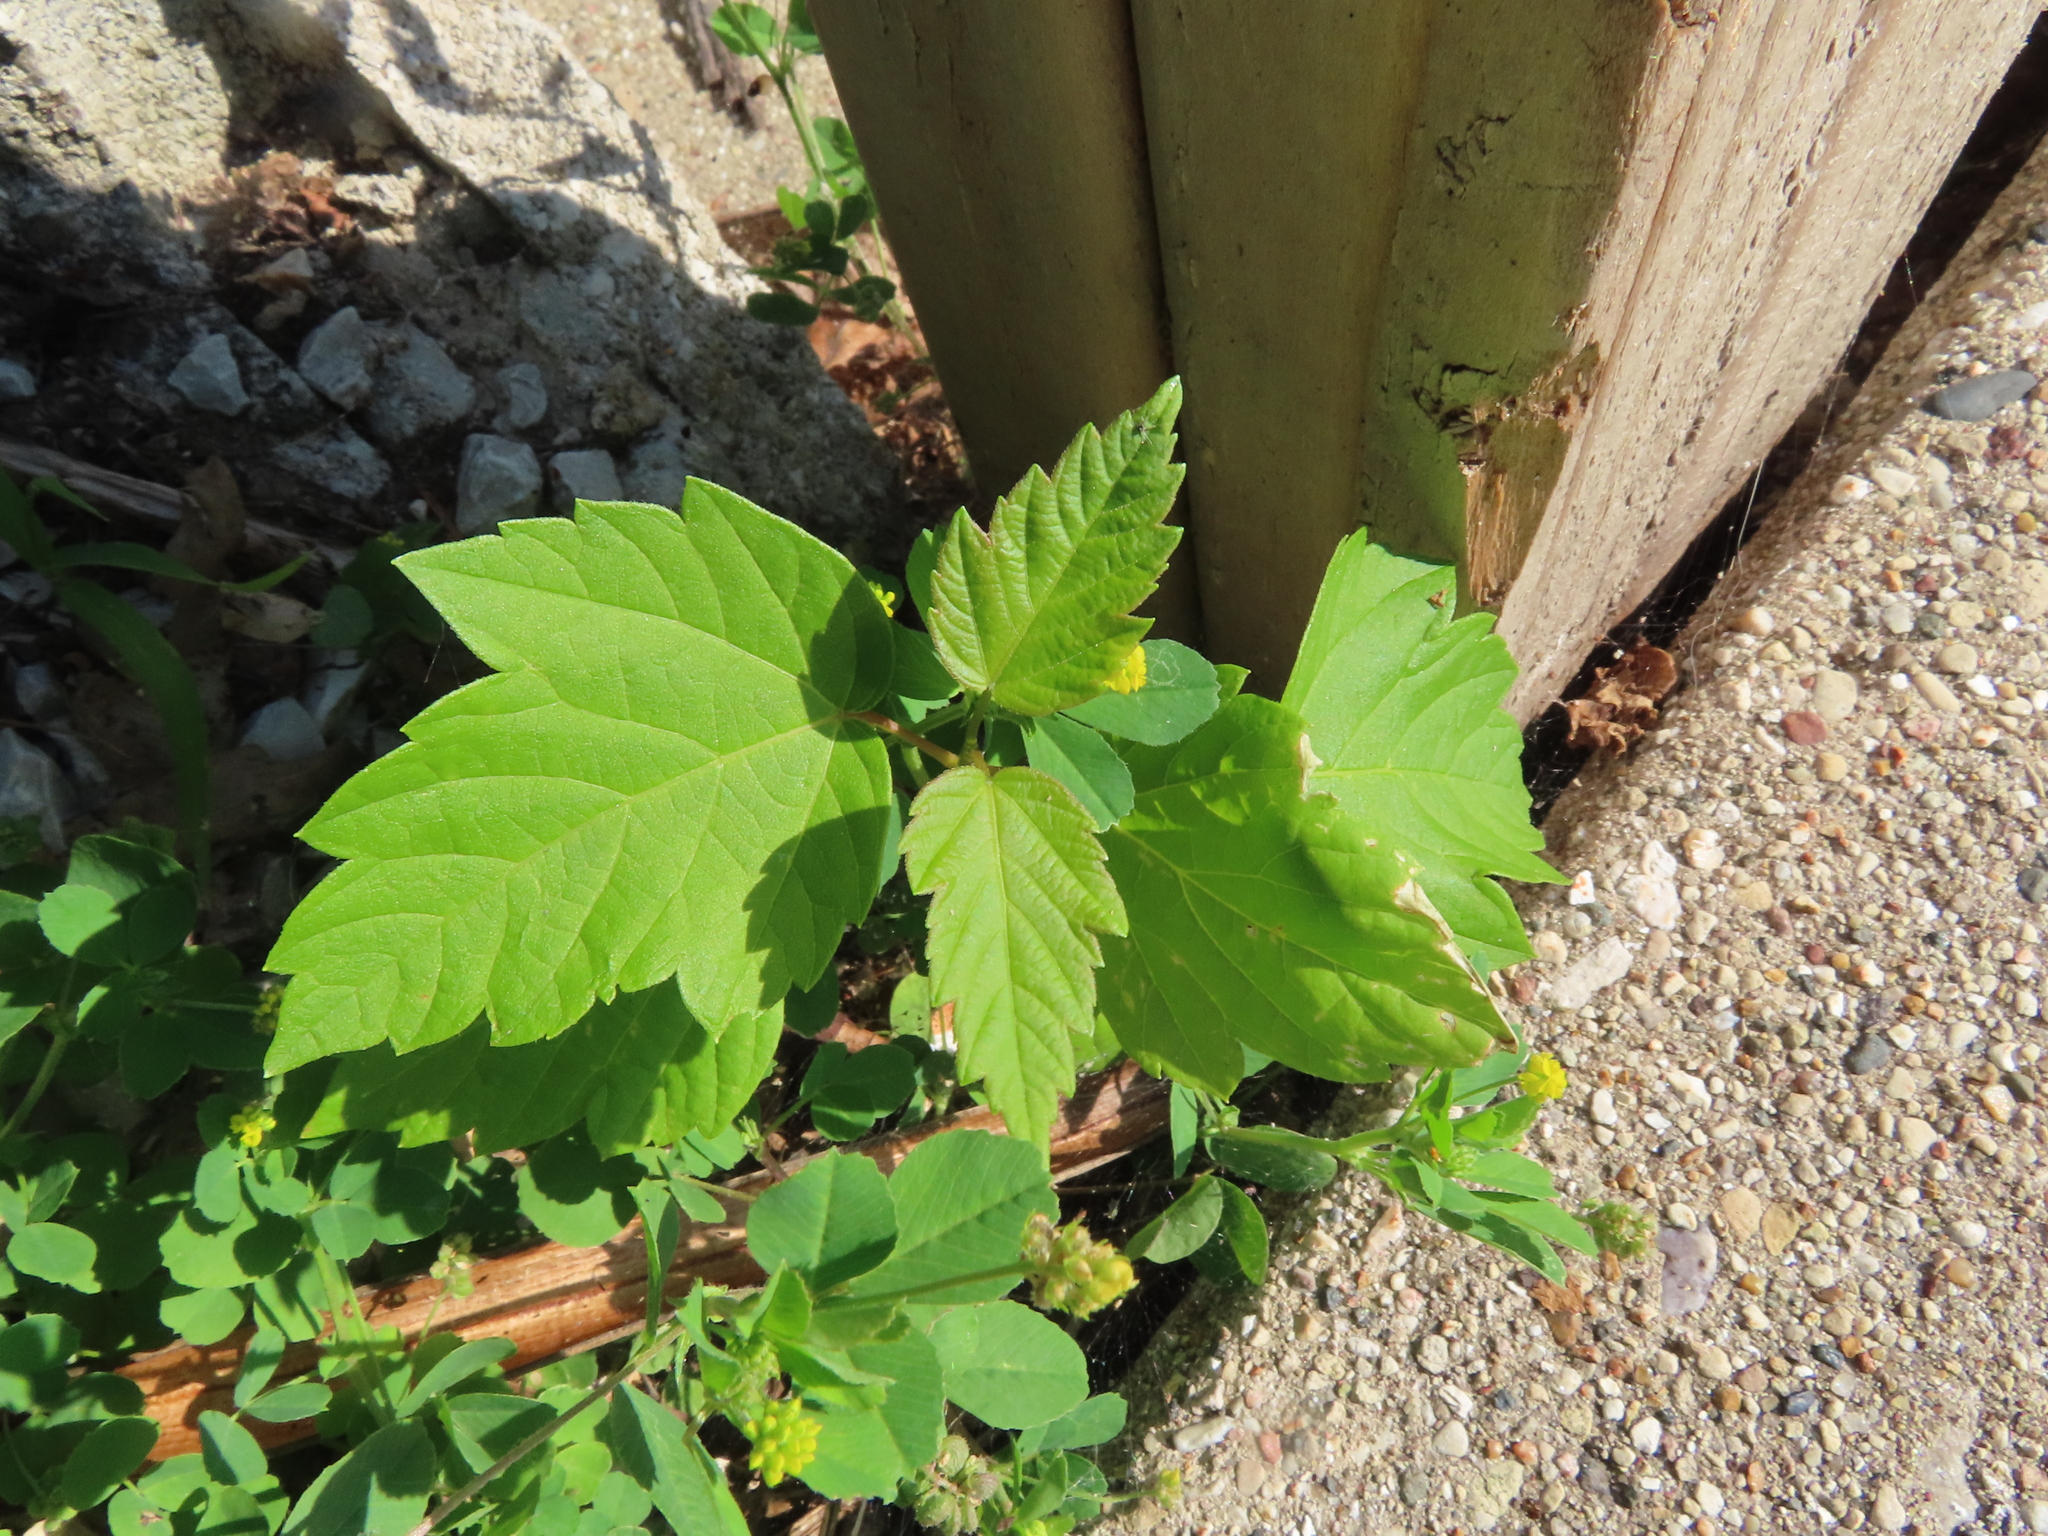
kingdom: Plantae
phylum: Tracheophyta
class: Magnoliopsida
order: Sapindales
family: Sapindaceae
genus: Acer
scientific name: Acer negundo
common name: Ashleaf maple
